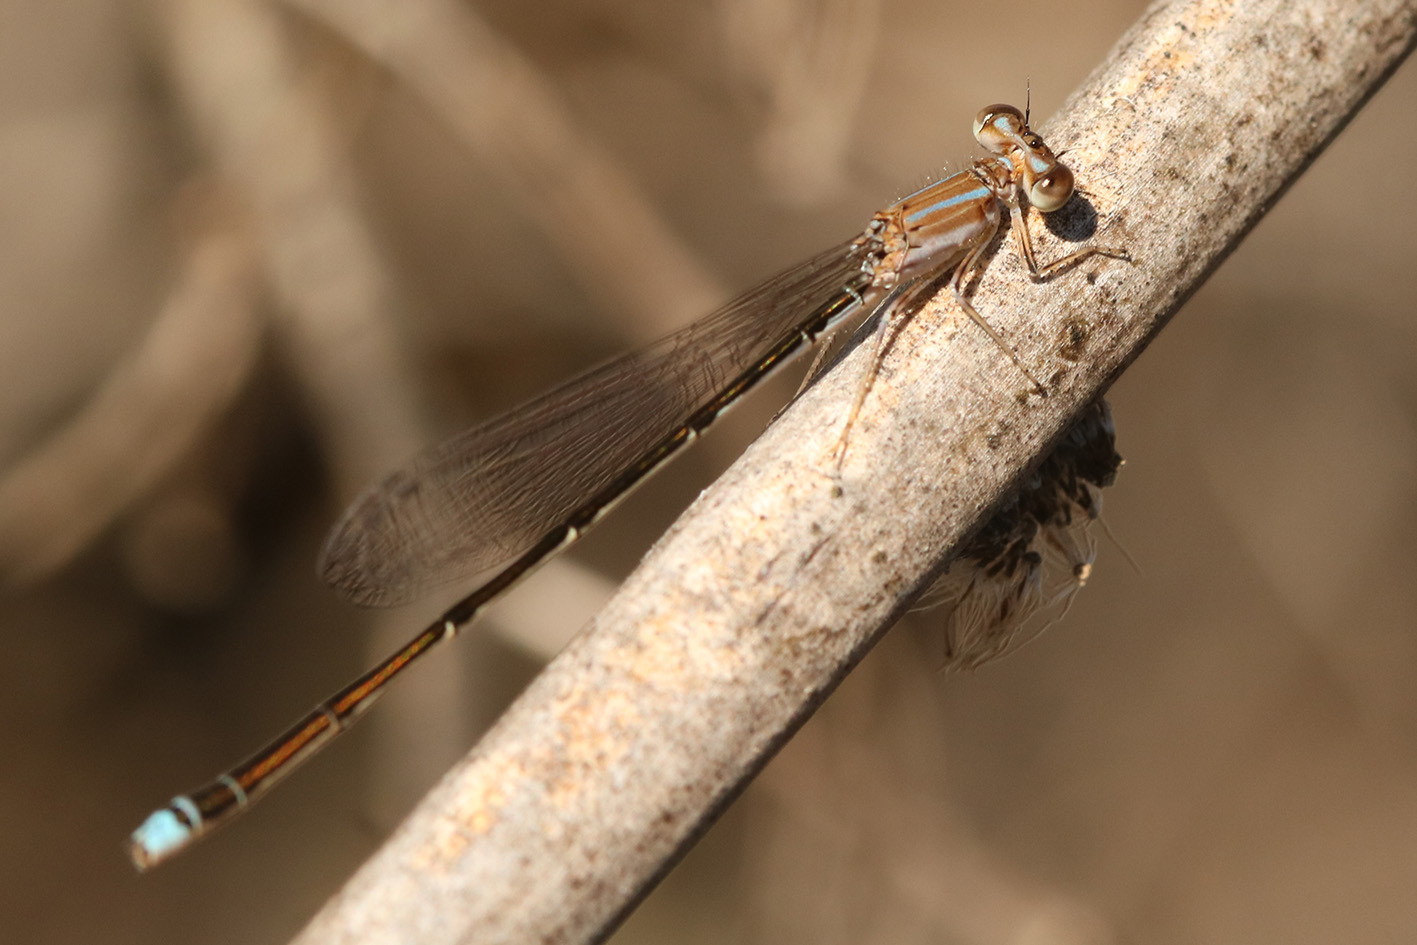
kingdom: Animalia
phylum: Arthropoda
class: Insecta
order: Odonata
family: Coenagrionidae
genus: Argentagrion
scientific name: Argentagrion ambiguum
